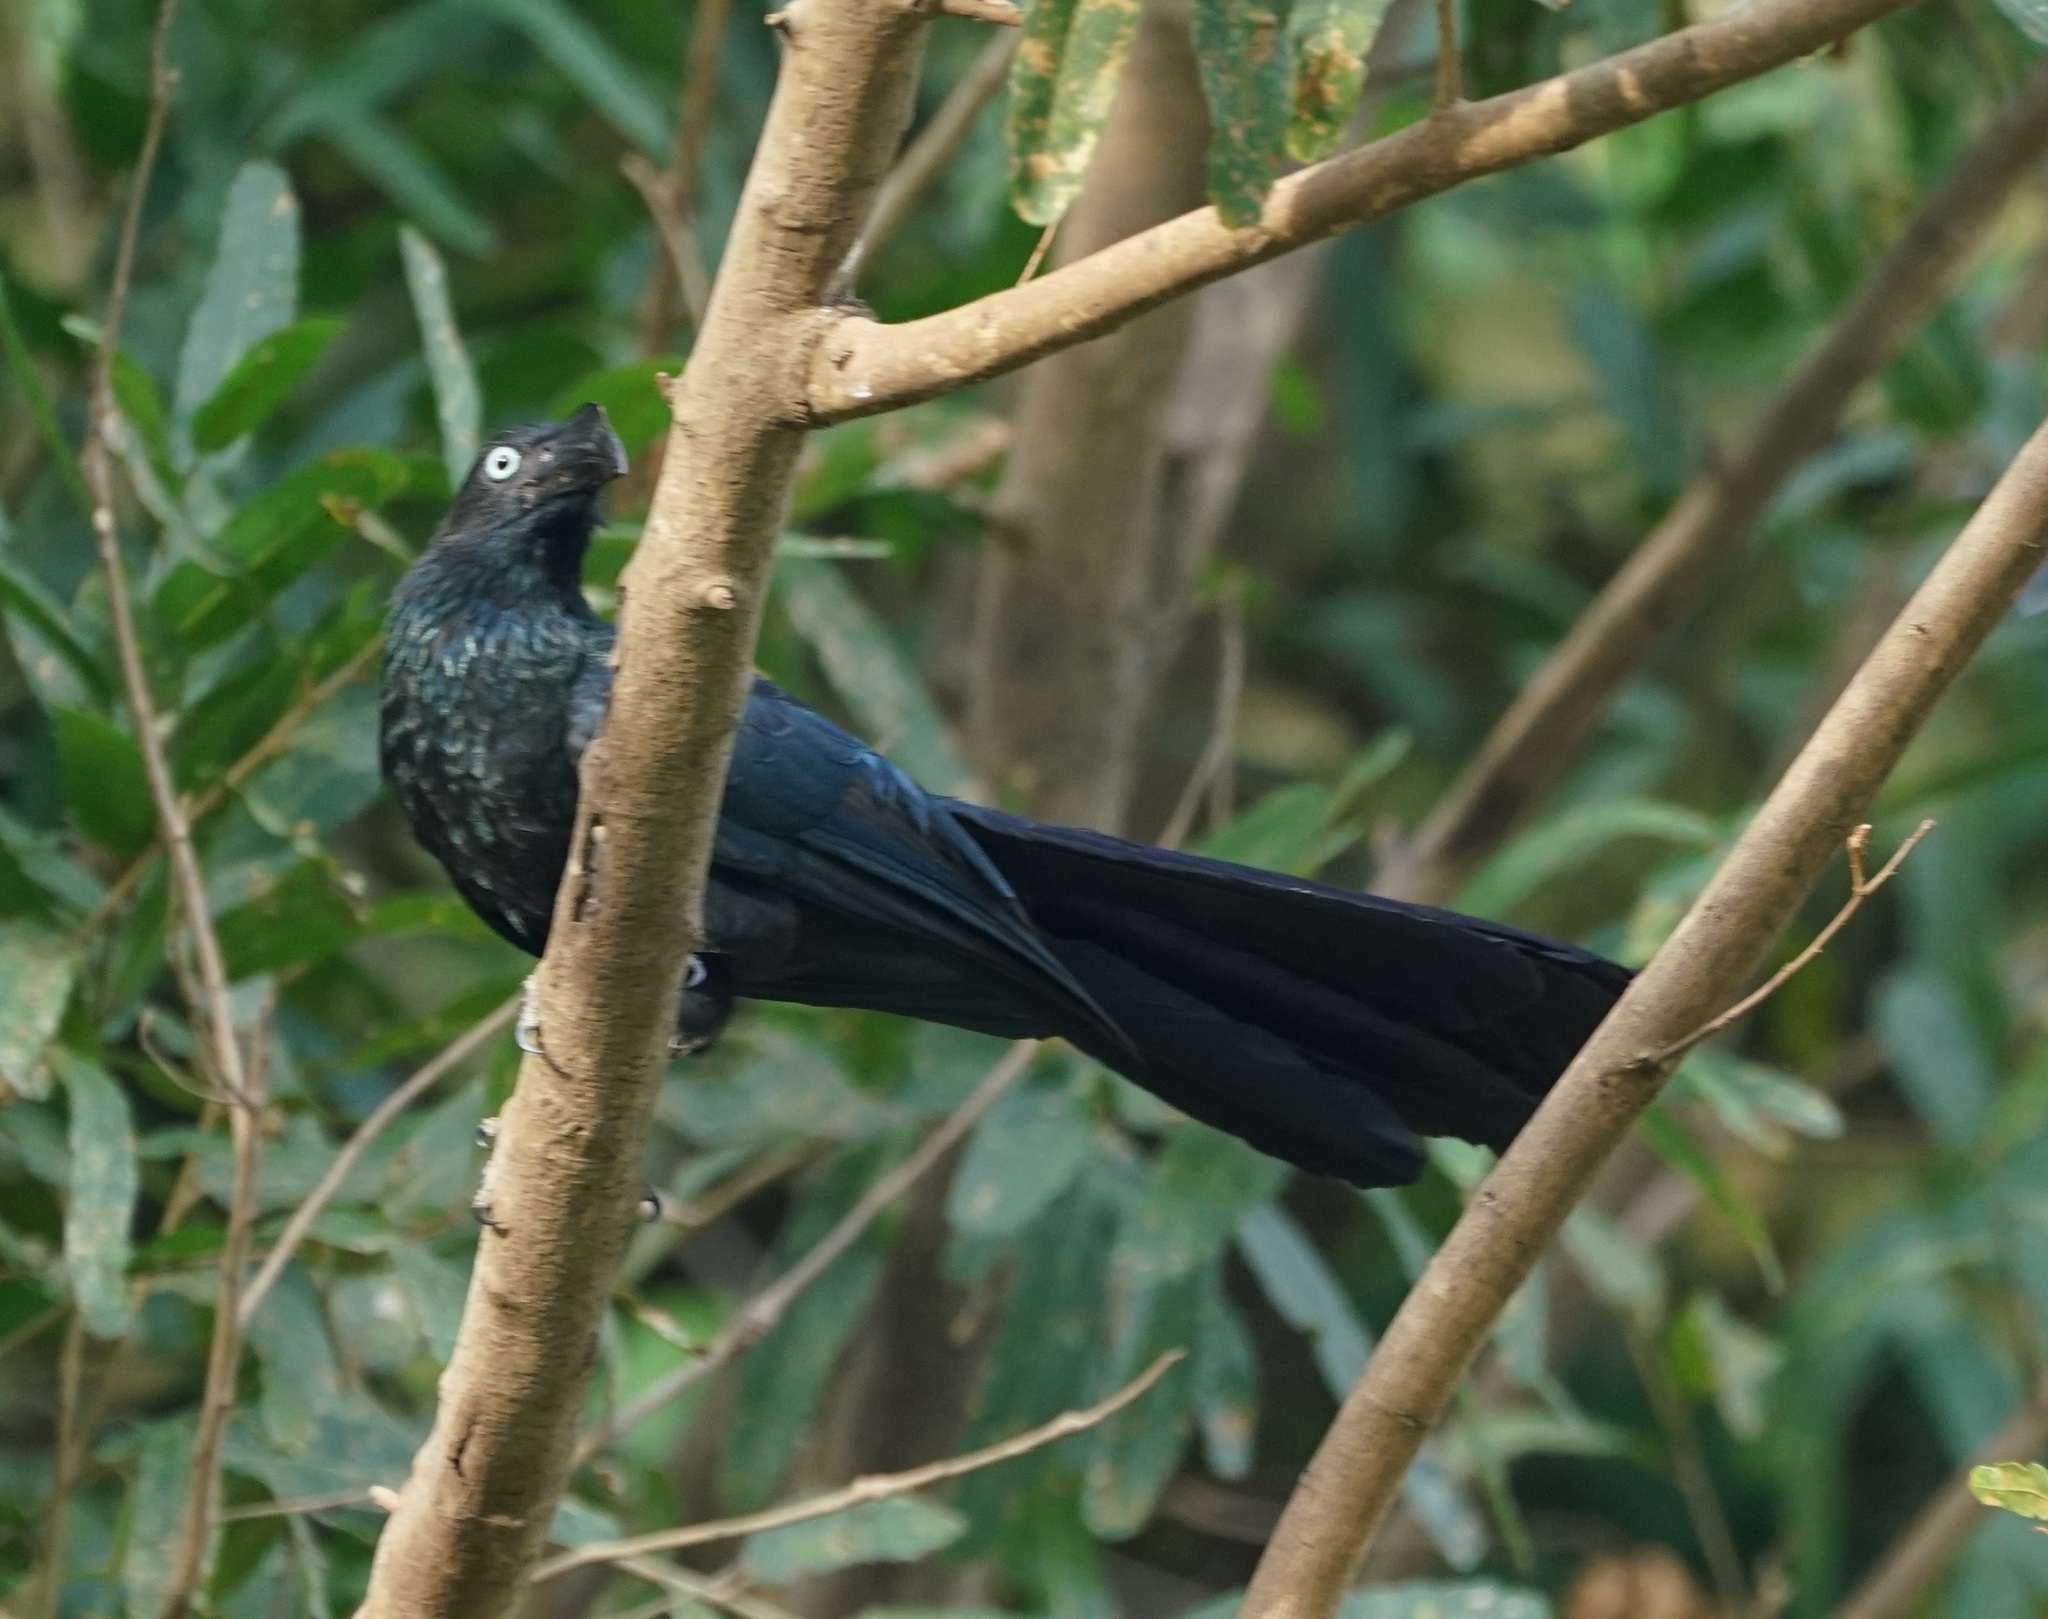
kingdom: Animalia
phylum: Chordata
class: Aves
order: Cuculiformes
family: Cuculidae
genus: Crotophaga
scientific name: Crotophaga major
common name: Greater ani
